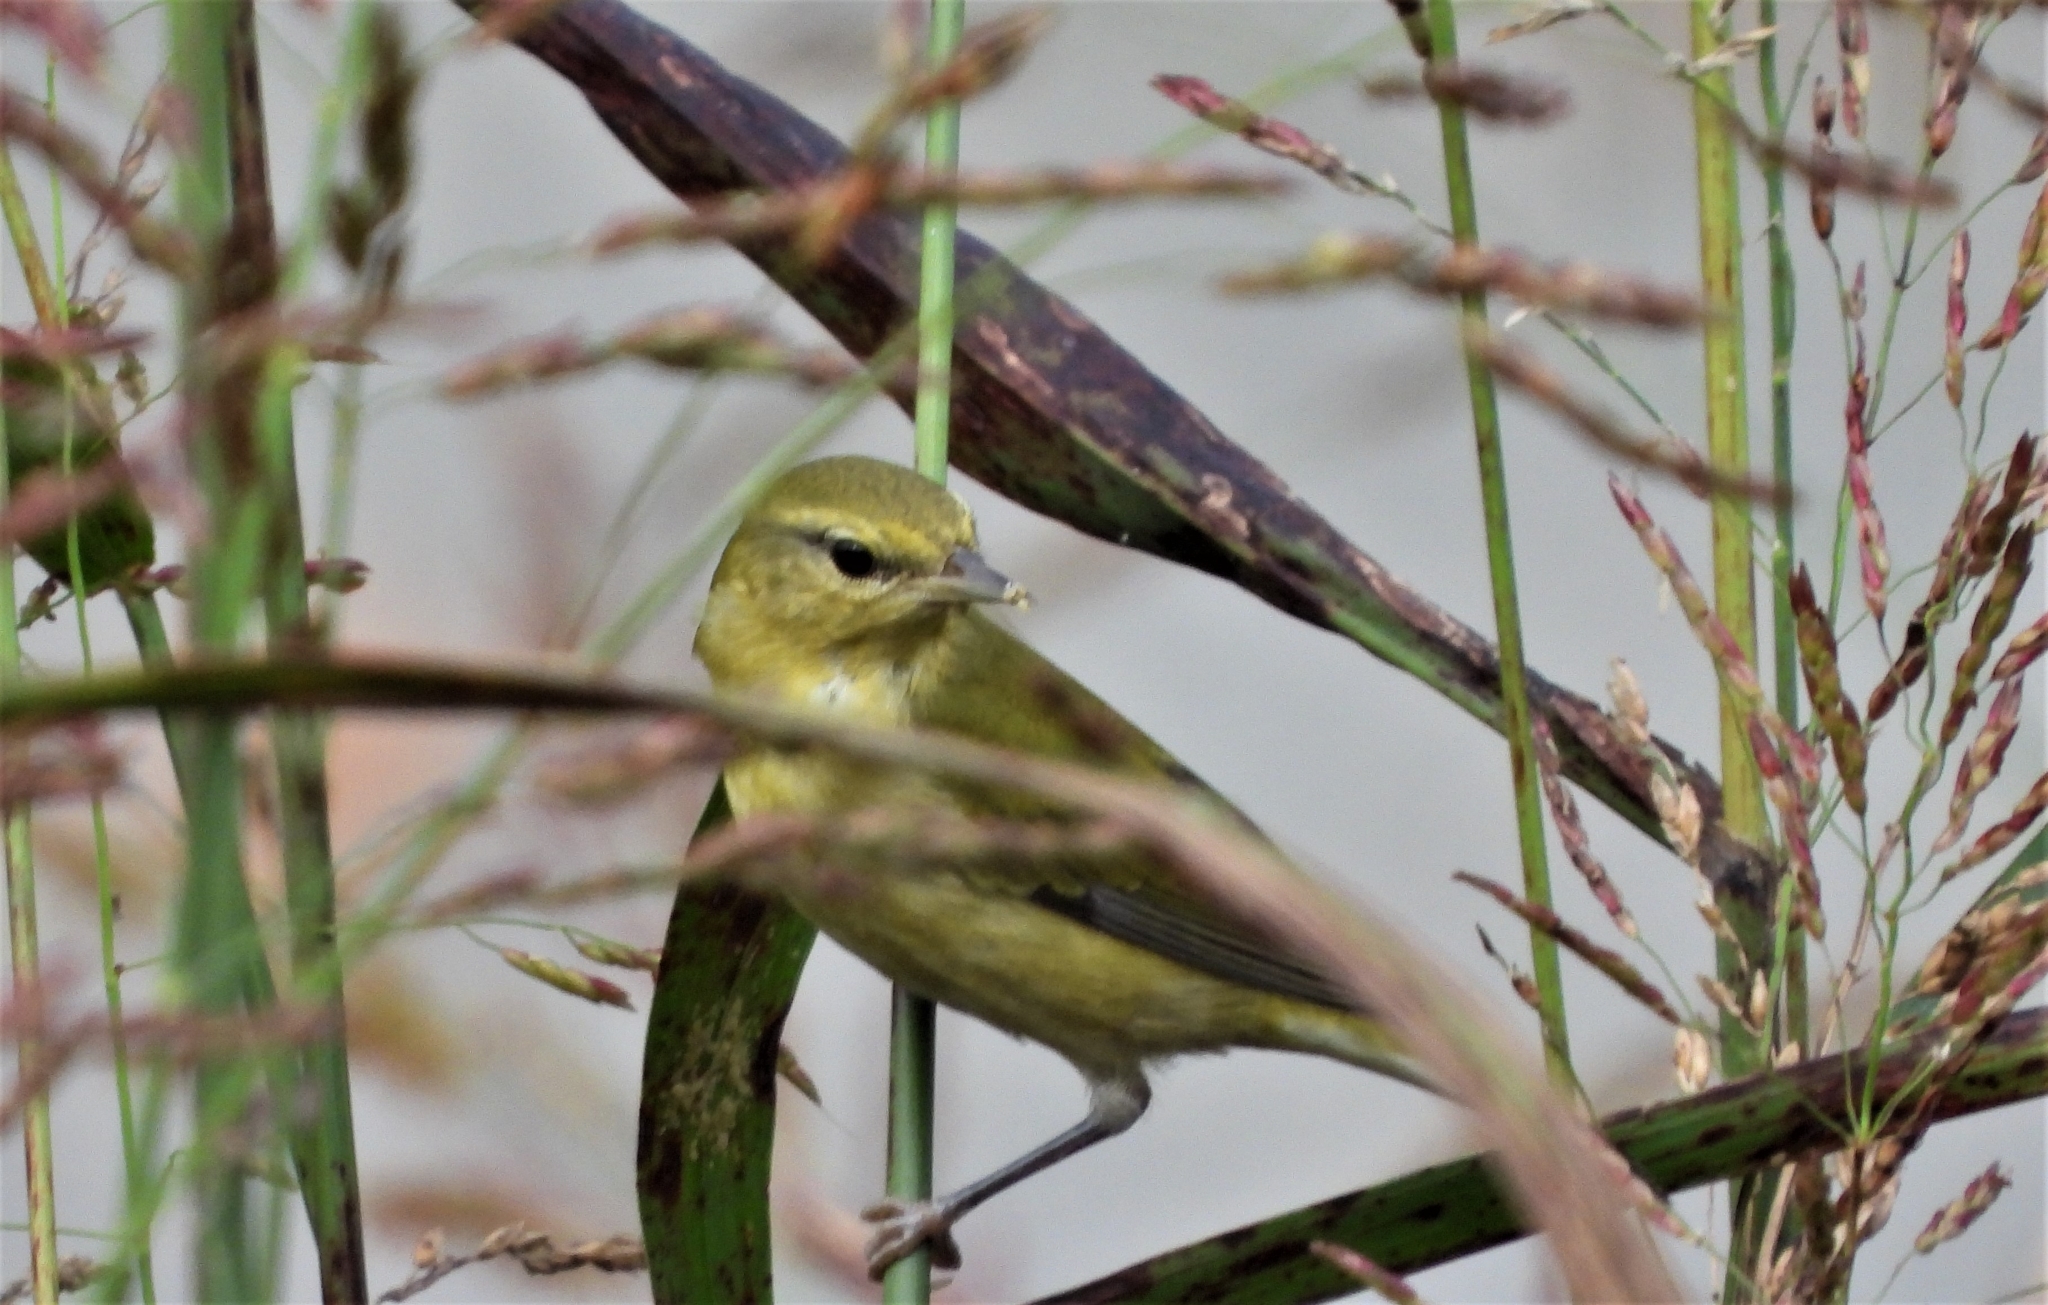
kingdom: Animalia
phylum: Chordata
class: Aves
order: Passeriformes
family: Parulidae
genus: Leiothlypis
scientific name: Leiothlypis peregrina
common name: Tennessee warbler
